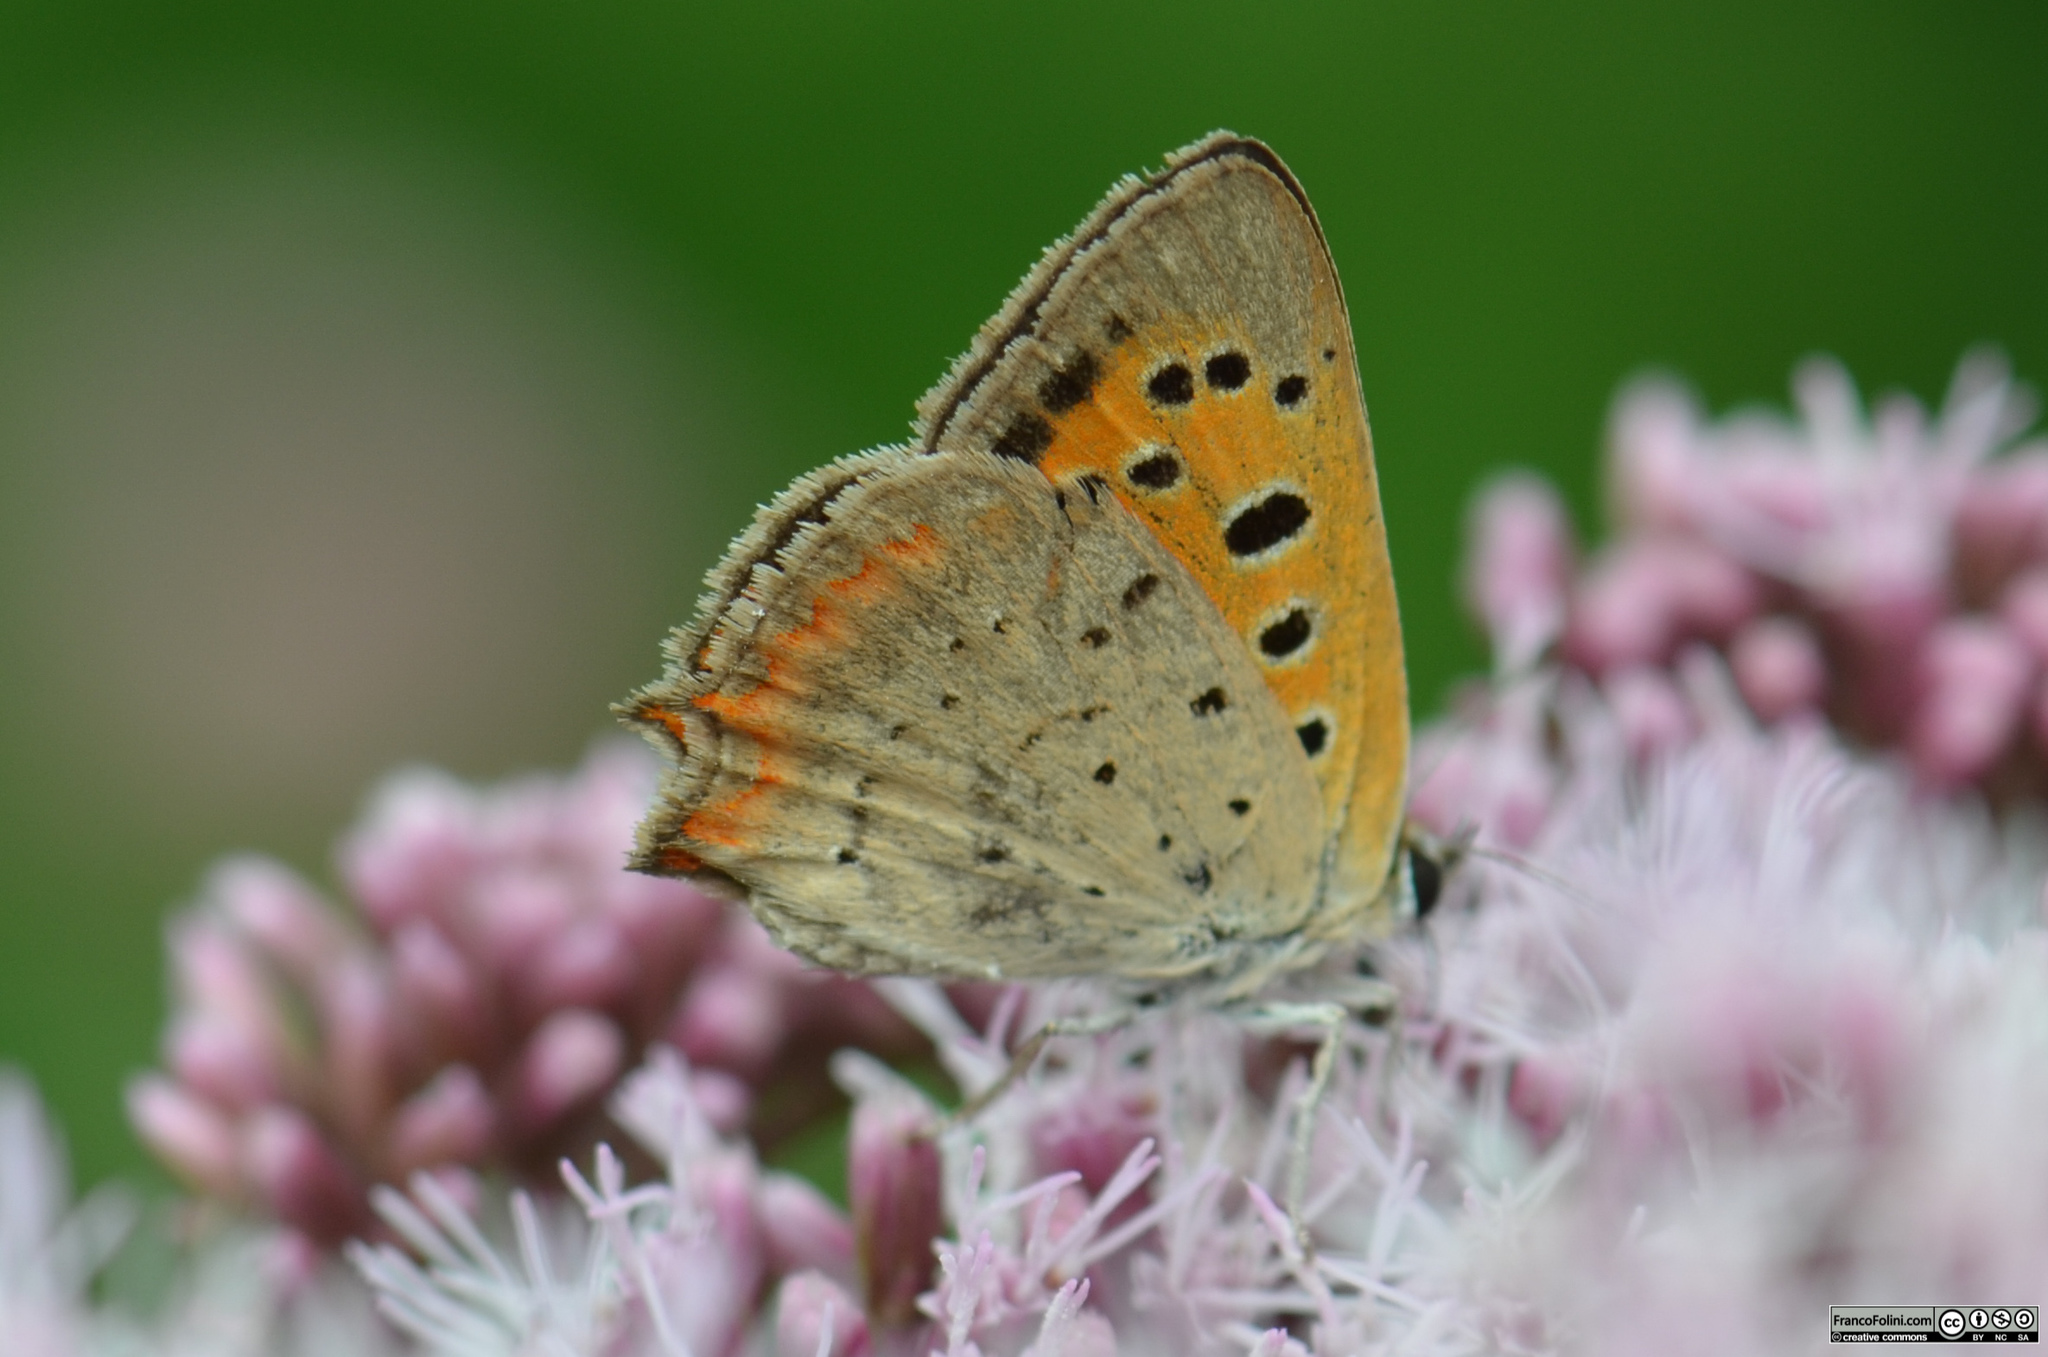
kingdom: Animalia
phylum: Arthropoda
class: Insecta
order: Lepidoptera
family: Lycaenidae
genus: Lycaena
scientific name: Lycaena phlaeas
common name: Small copper
